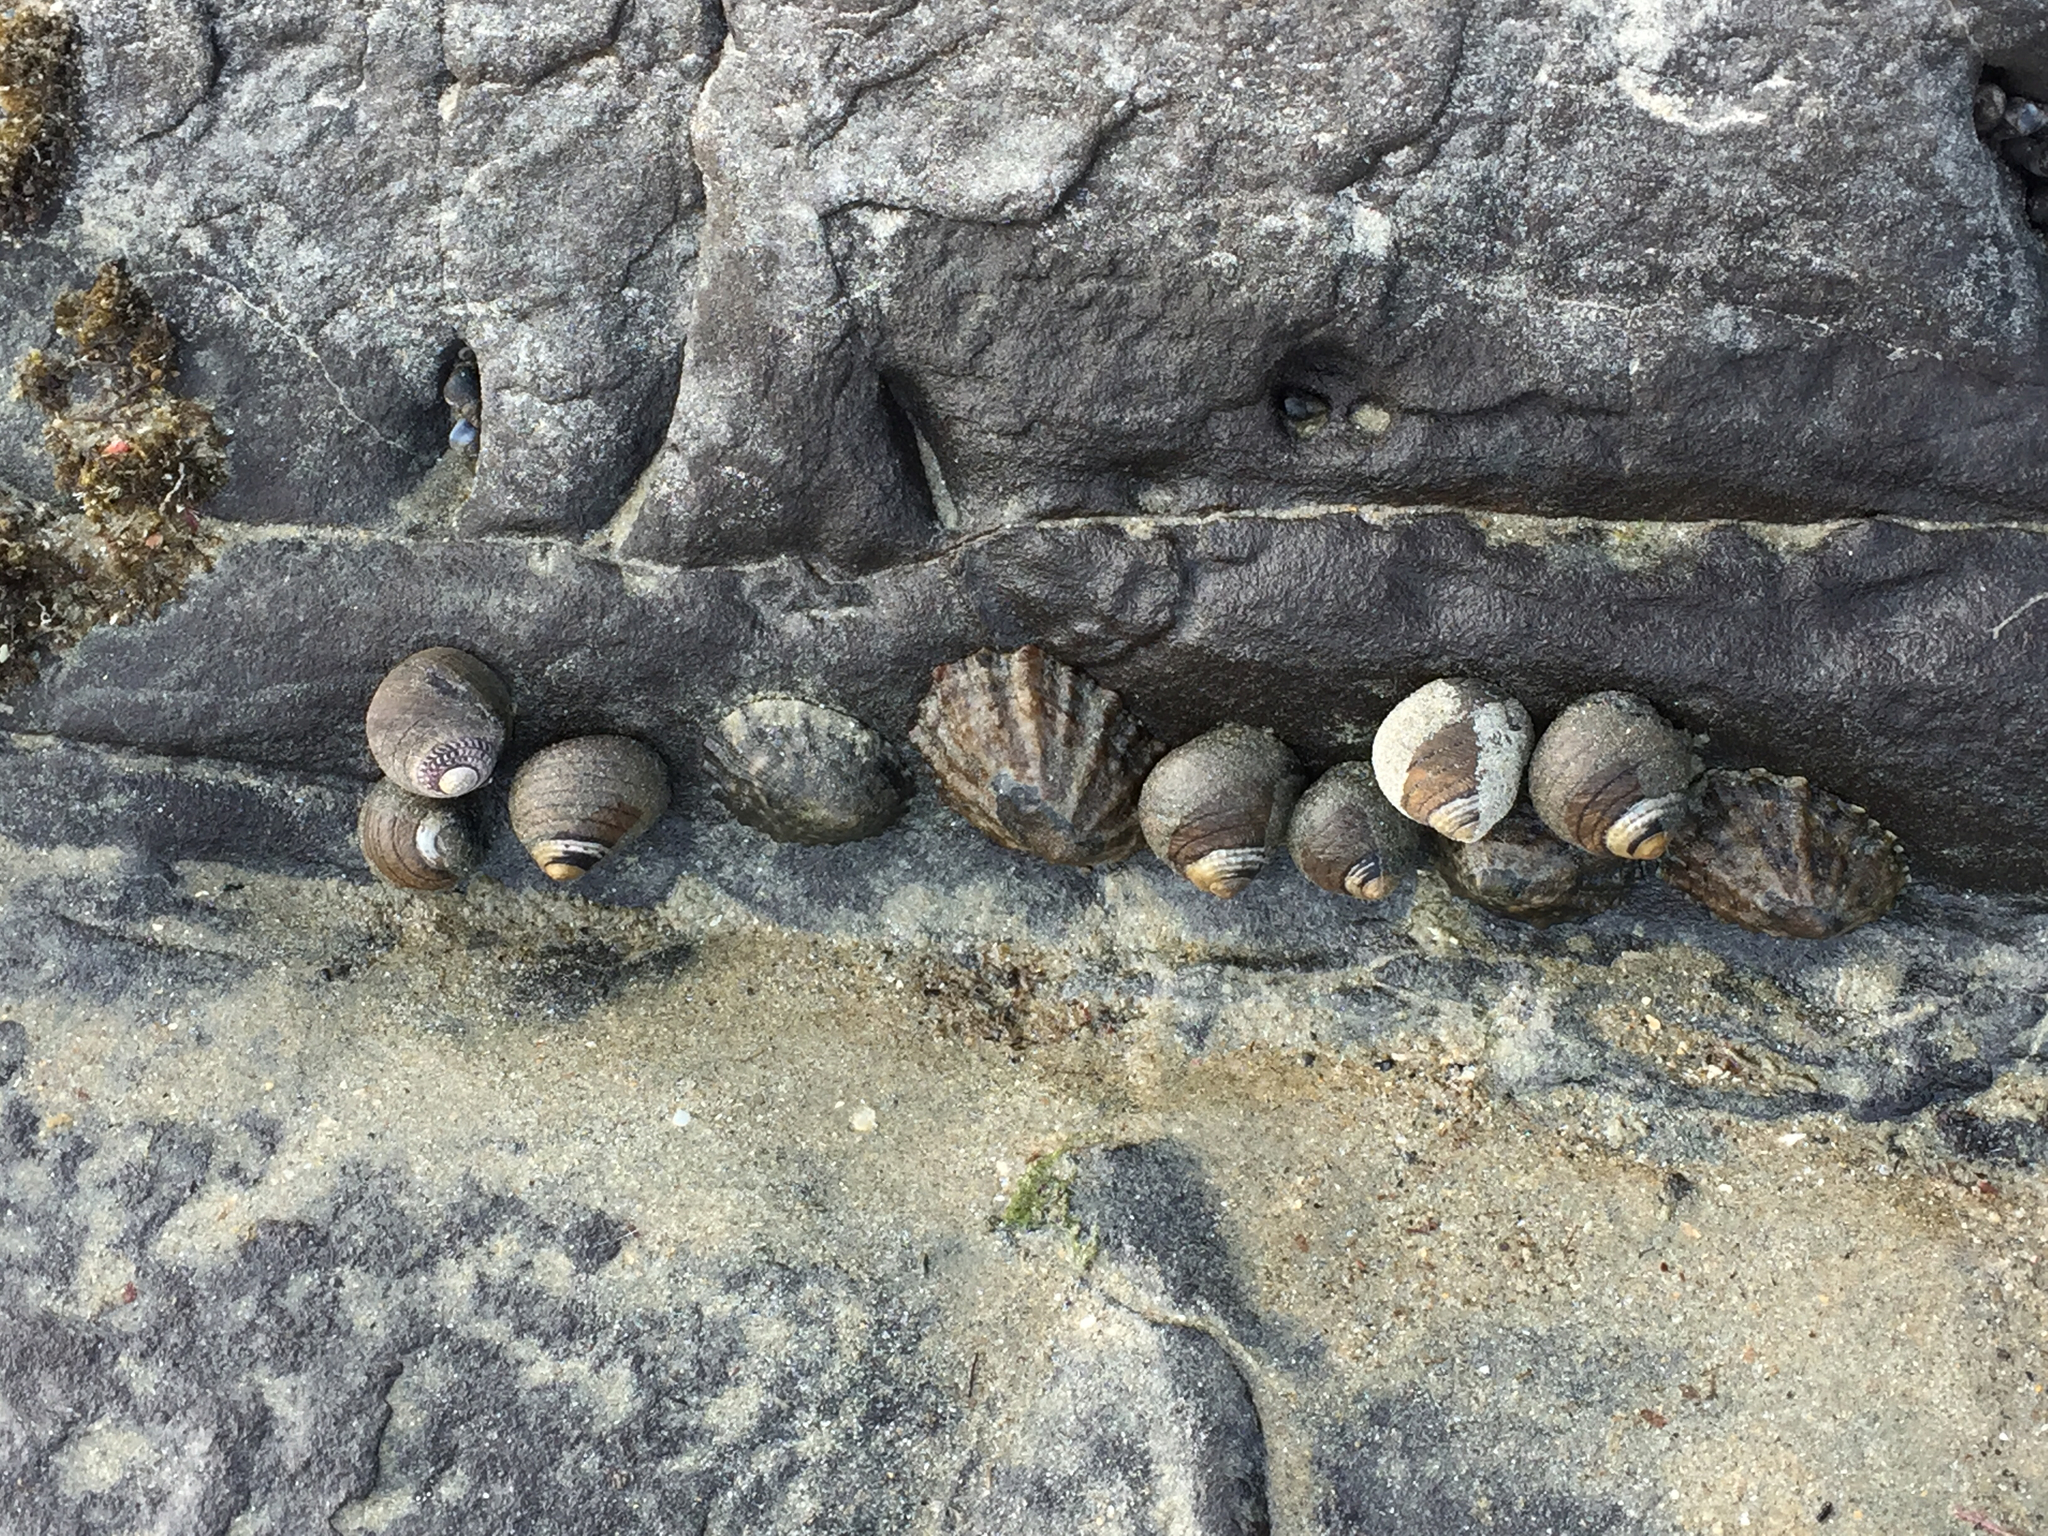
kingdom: Animalia
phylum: Mollusca
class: Gastropoda
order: Trochida
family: Trochidae
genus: Diloma
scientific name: Diloma aethiops
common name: Scorched monodont
